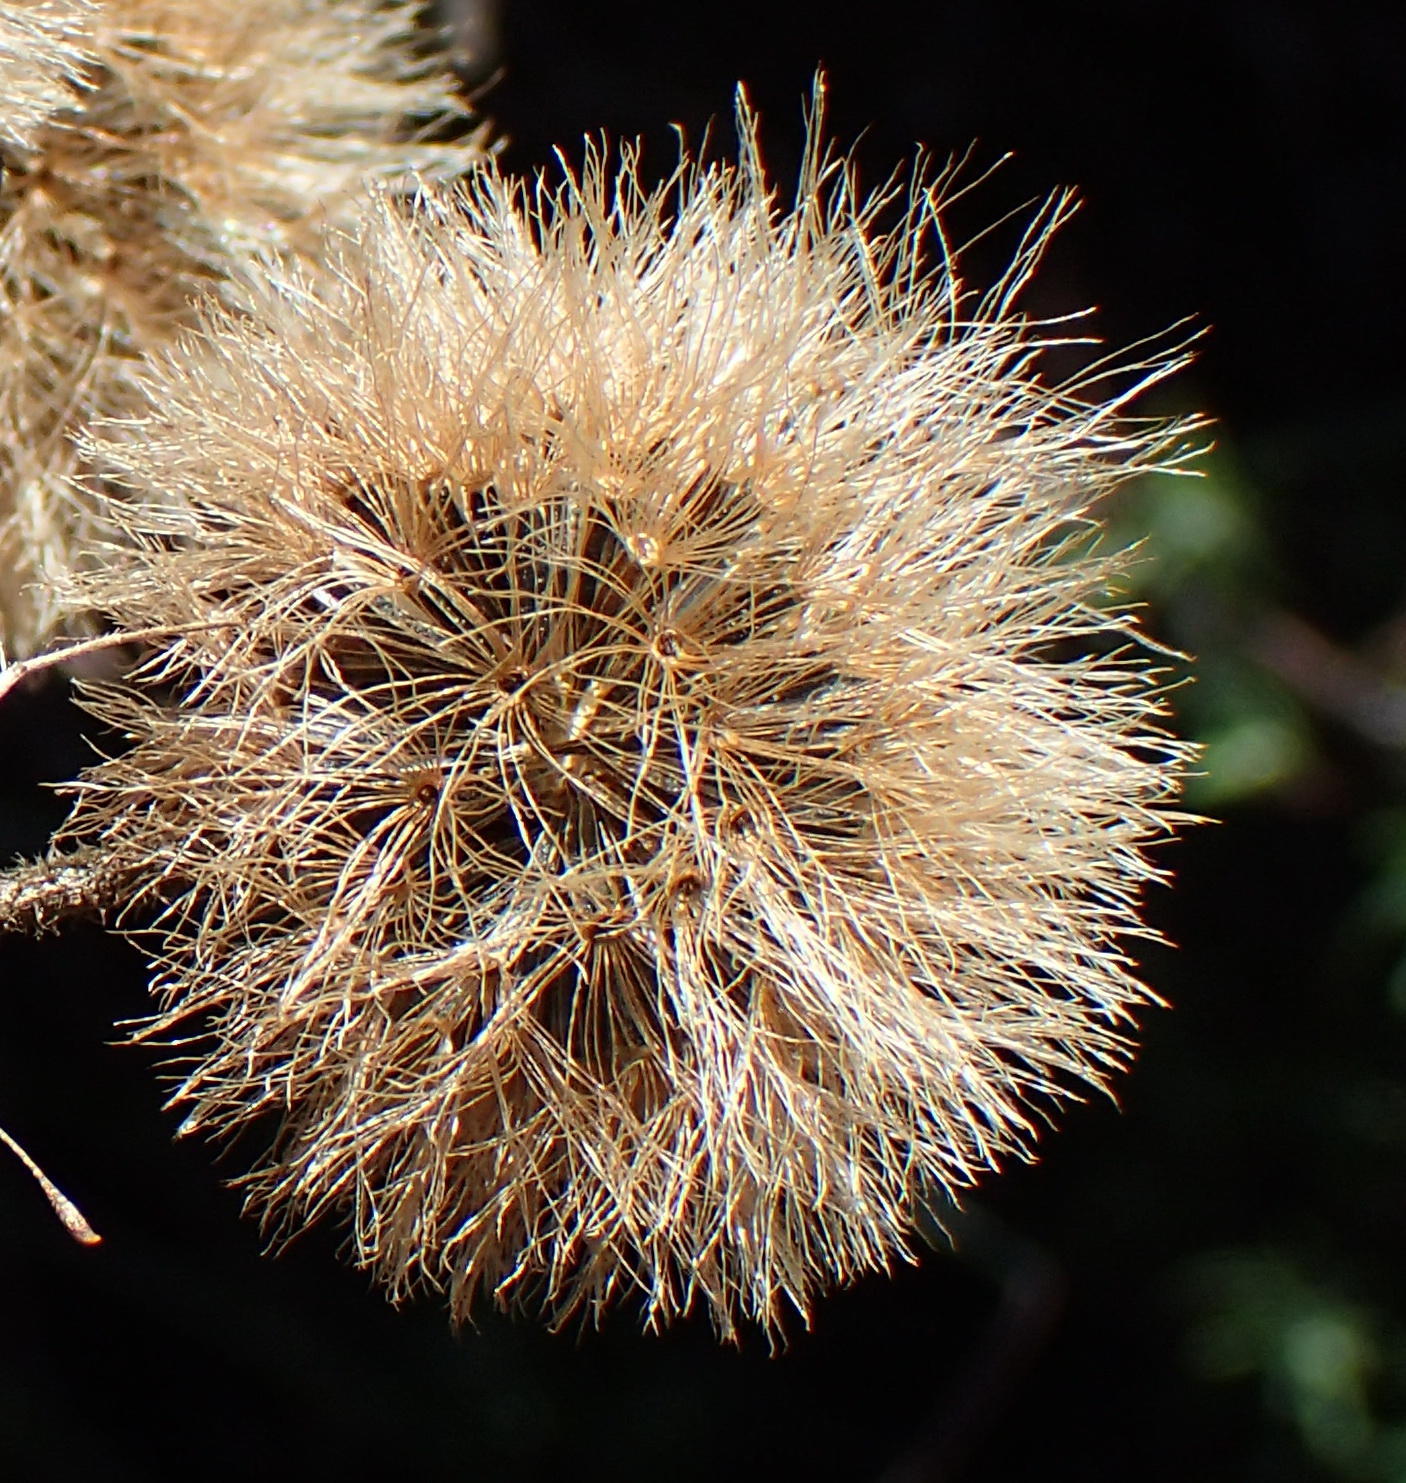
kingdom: Plantae
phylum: Tracheophyta
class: Magnoliopsida
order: Asterales
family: Asteraceae
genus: Campuloclinium
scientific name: Campuloclinium macrocephalum
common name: Pompomweed
